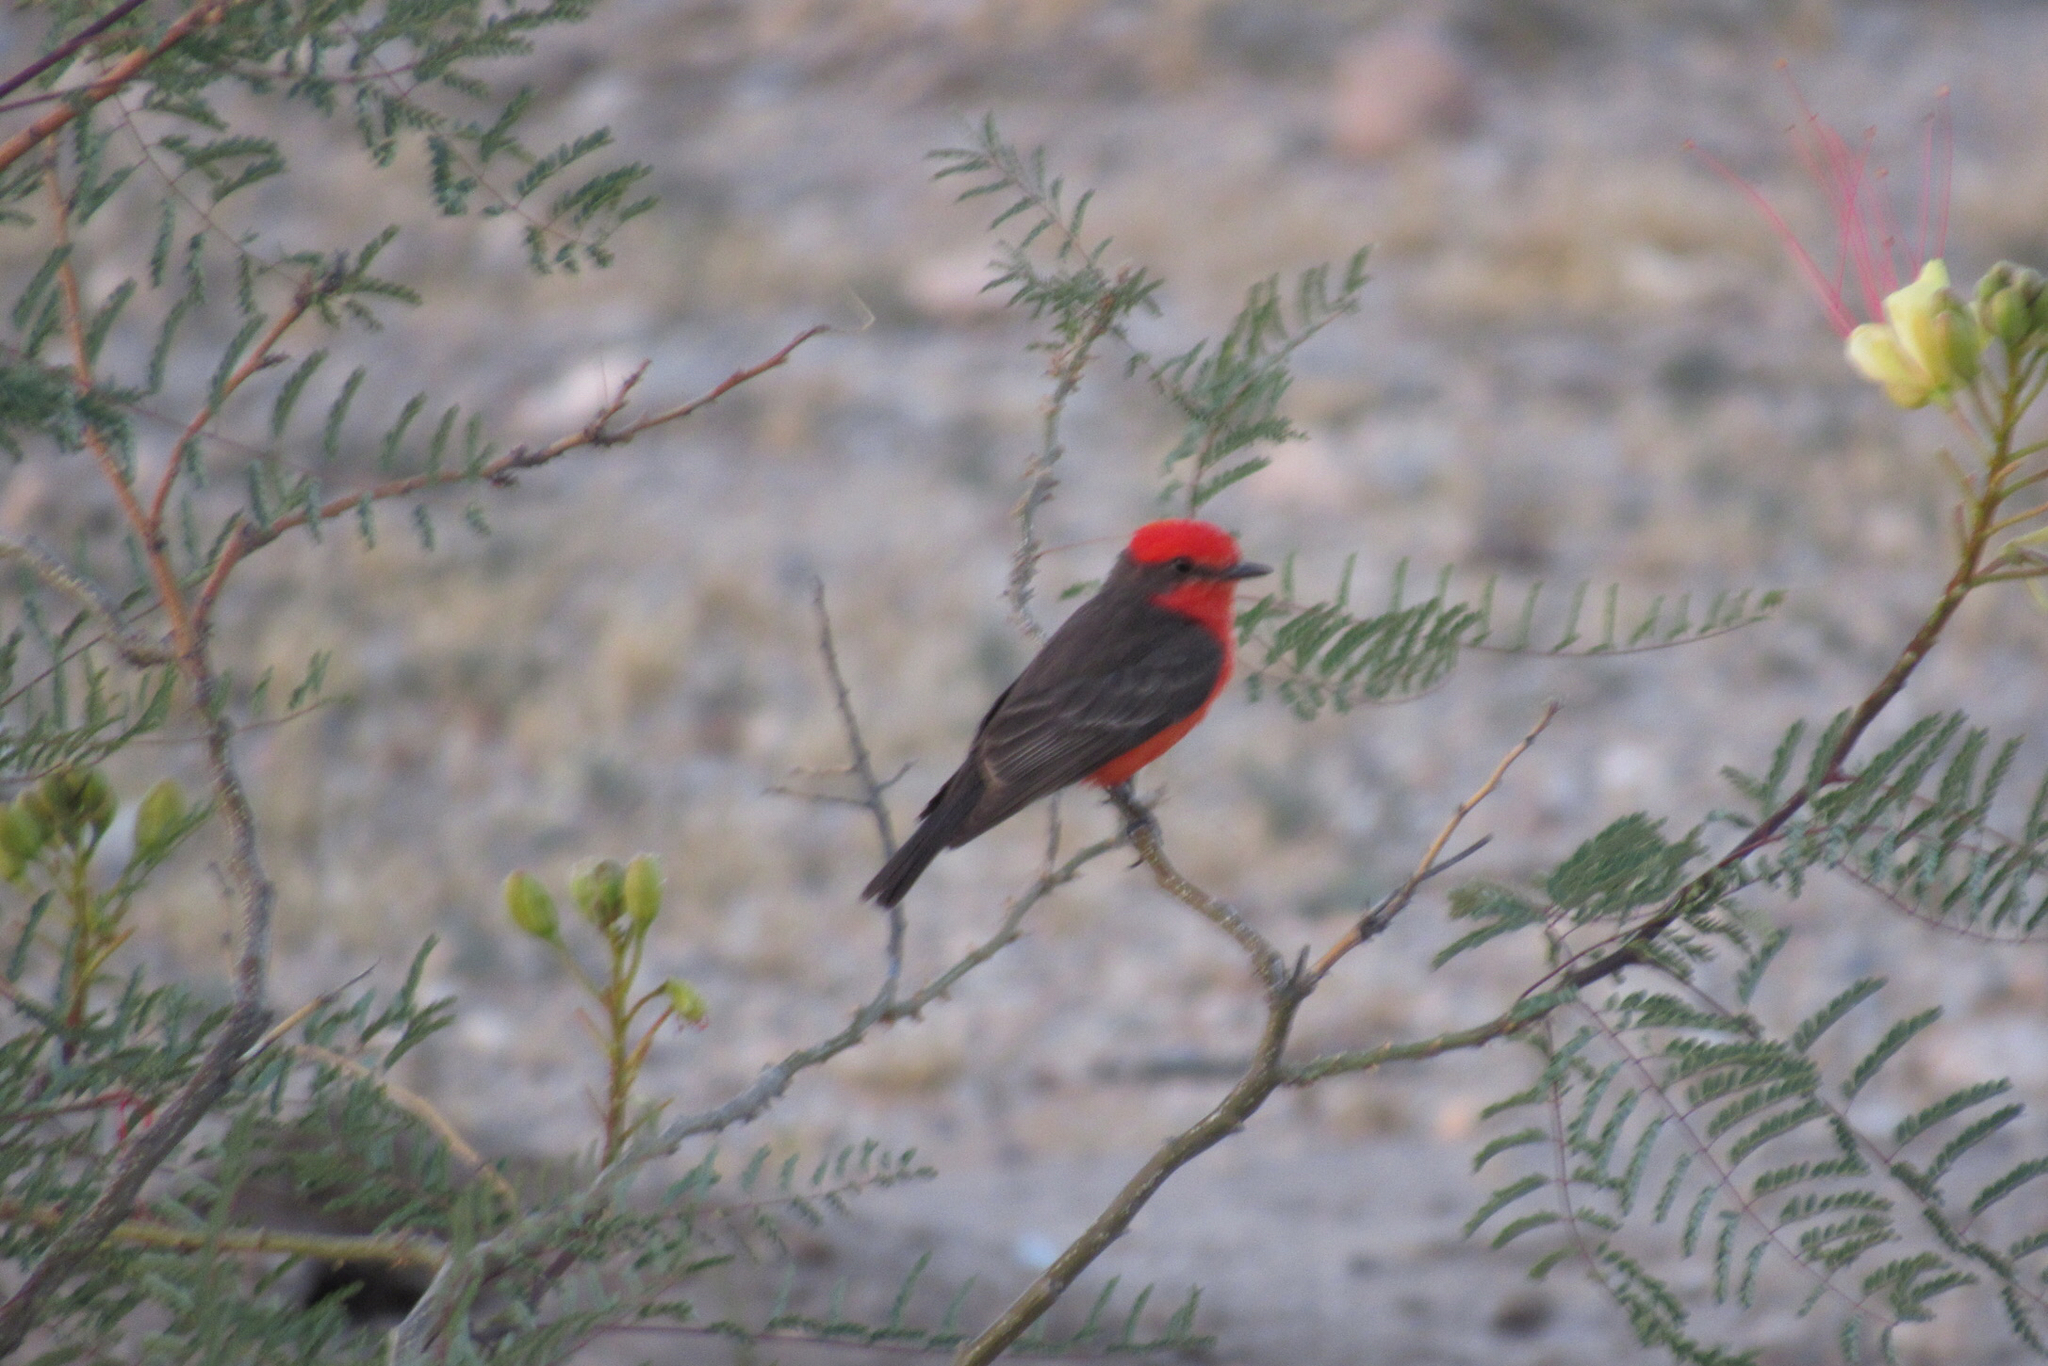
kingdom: Animalia
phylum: Chordata
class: Aves
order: Passeriformes
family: Tyrannidae
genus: Pyrocephalus
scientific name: Pyrocephalus rubinus
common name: Vermilion flycatcher
